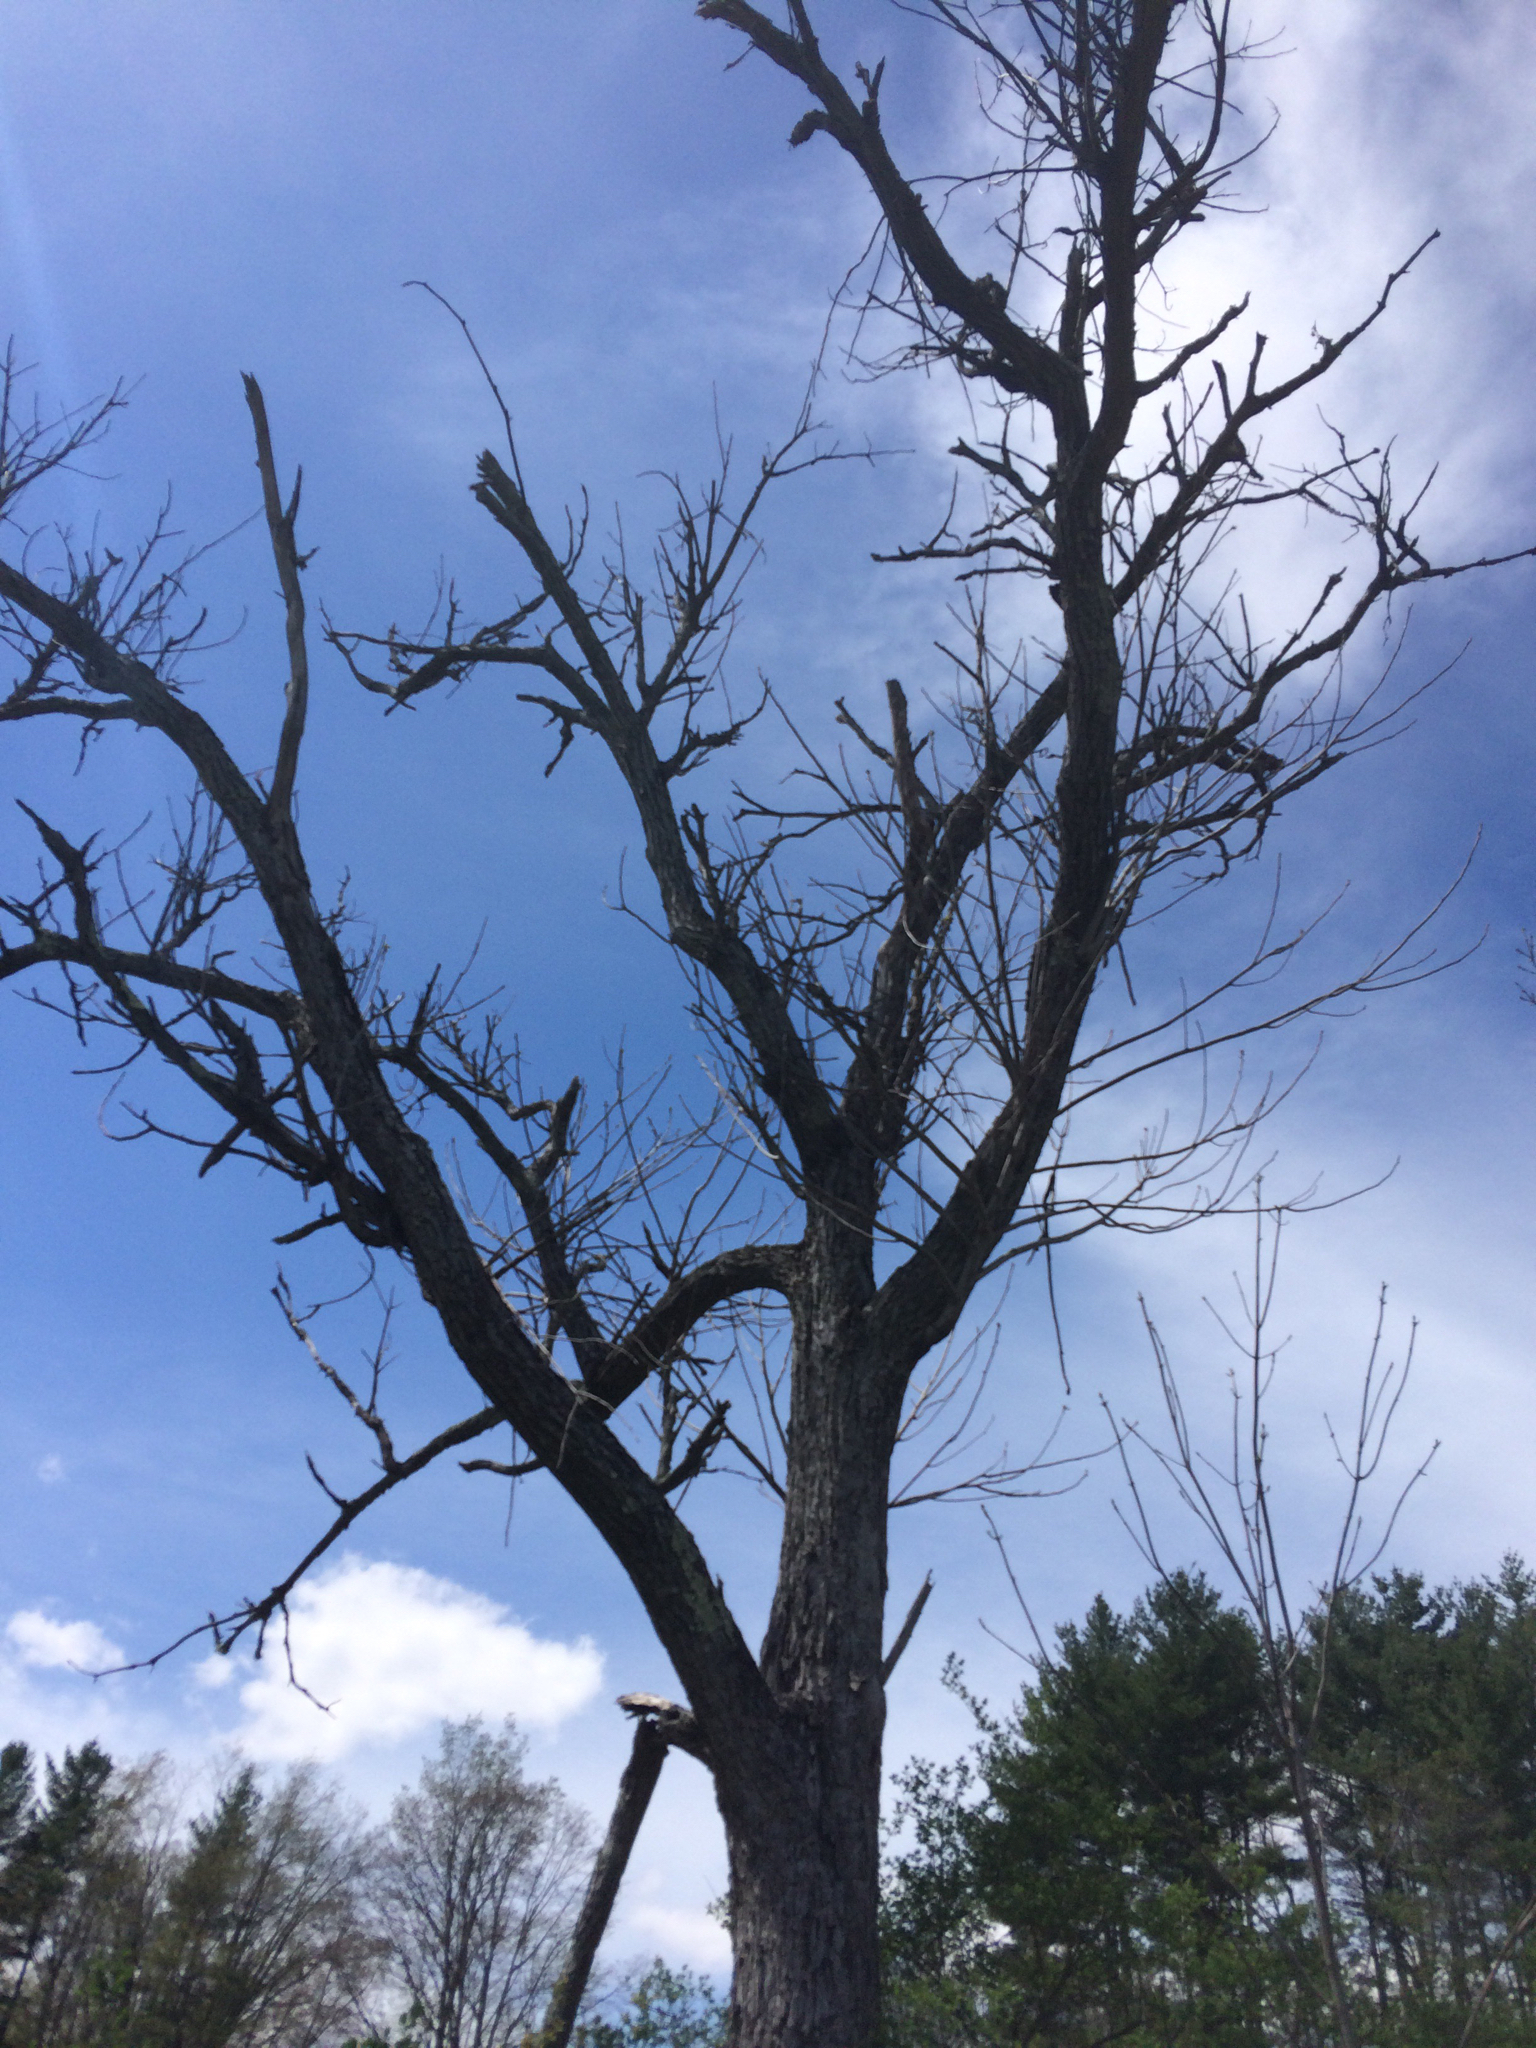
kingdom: Plantae
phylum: Tracheophyta
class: Magnoliopsida
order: Fagales
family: Juglandaceae
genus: Juglans
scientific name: Juglans cinerea
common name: Butternut
